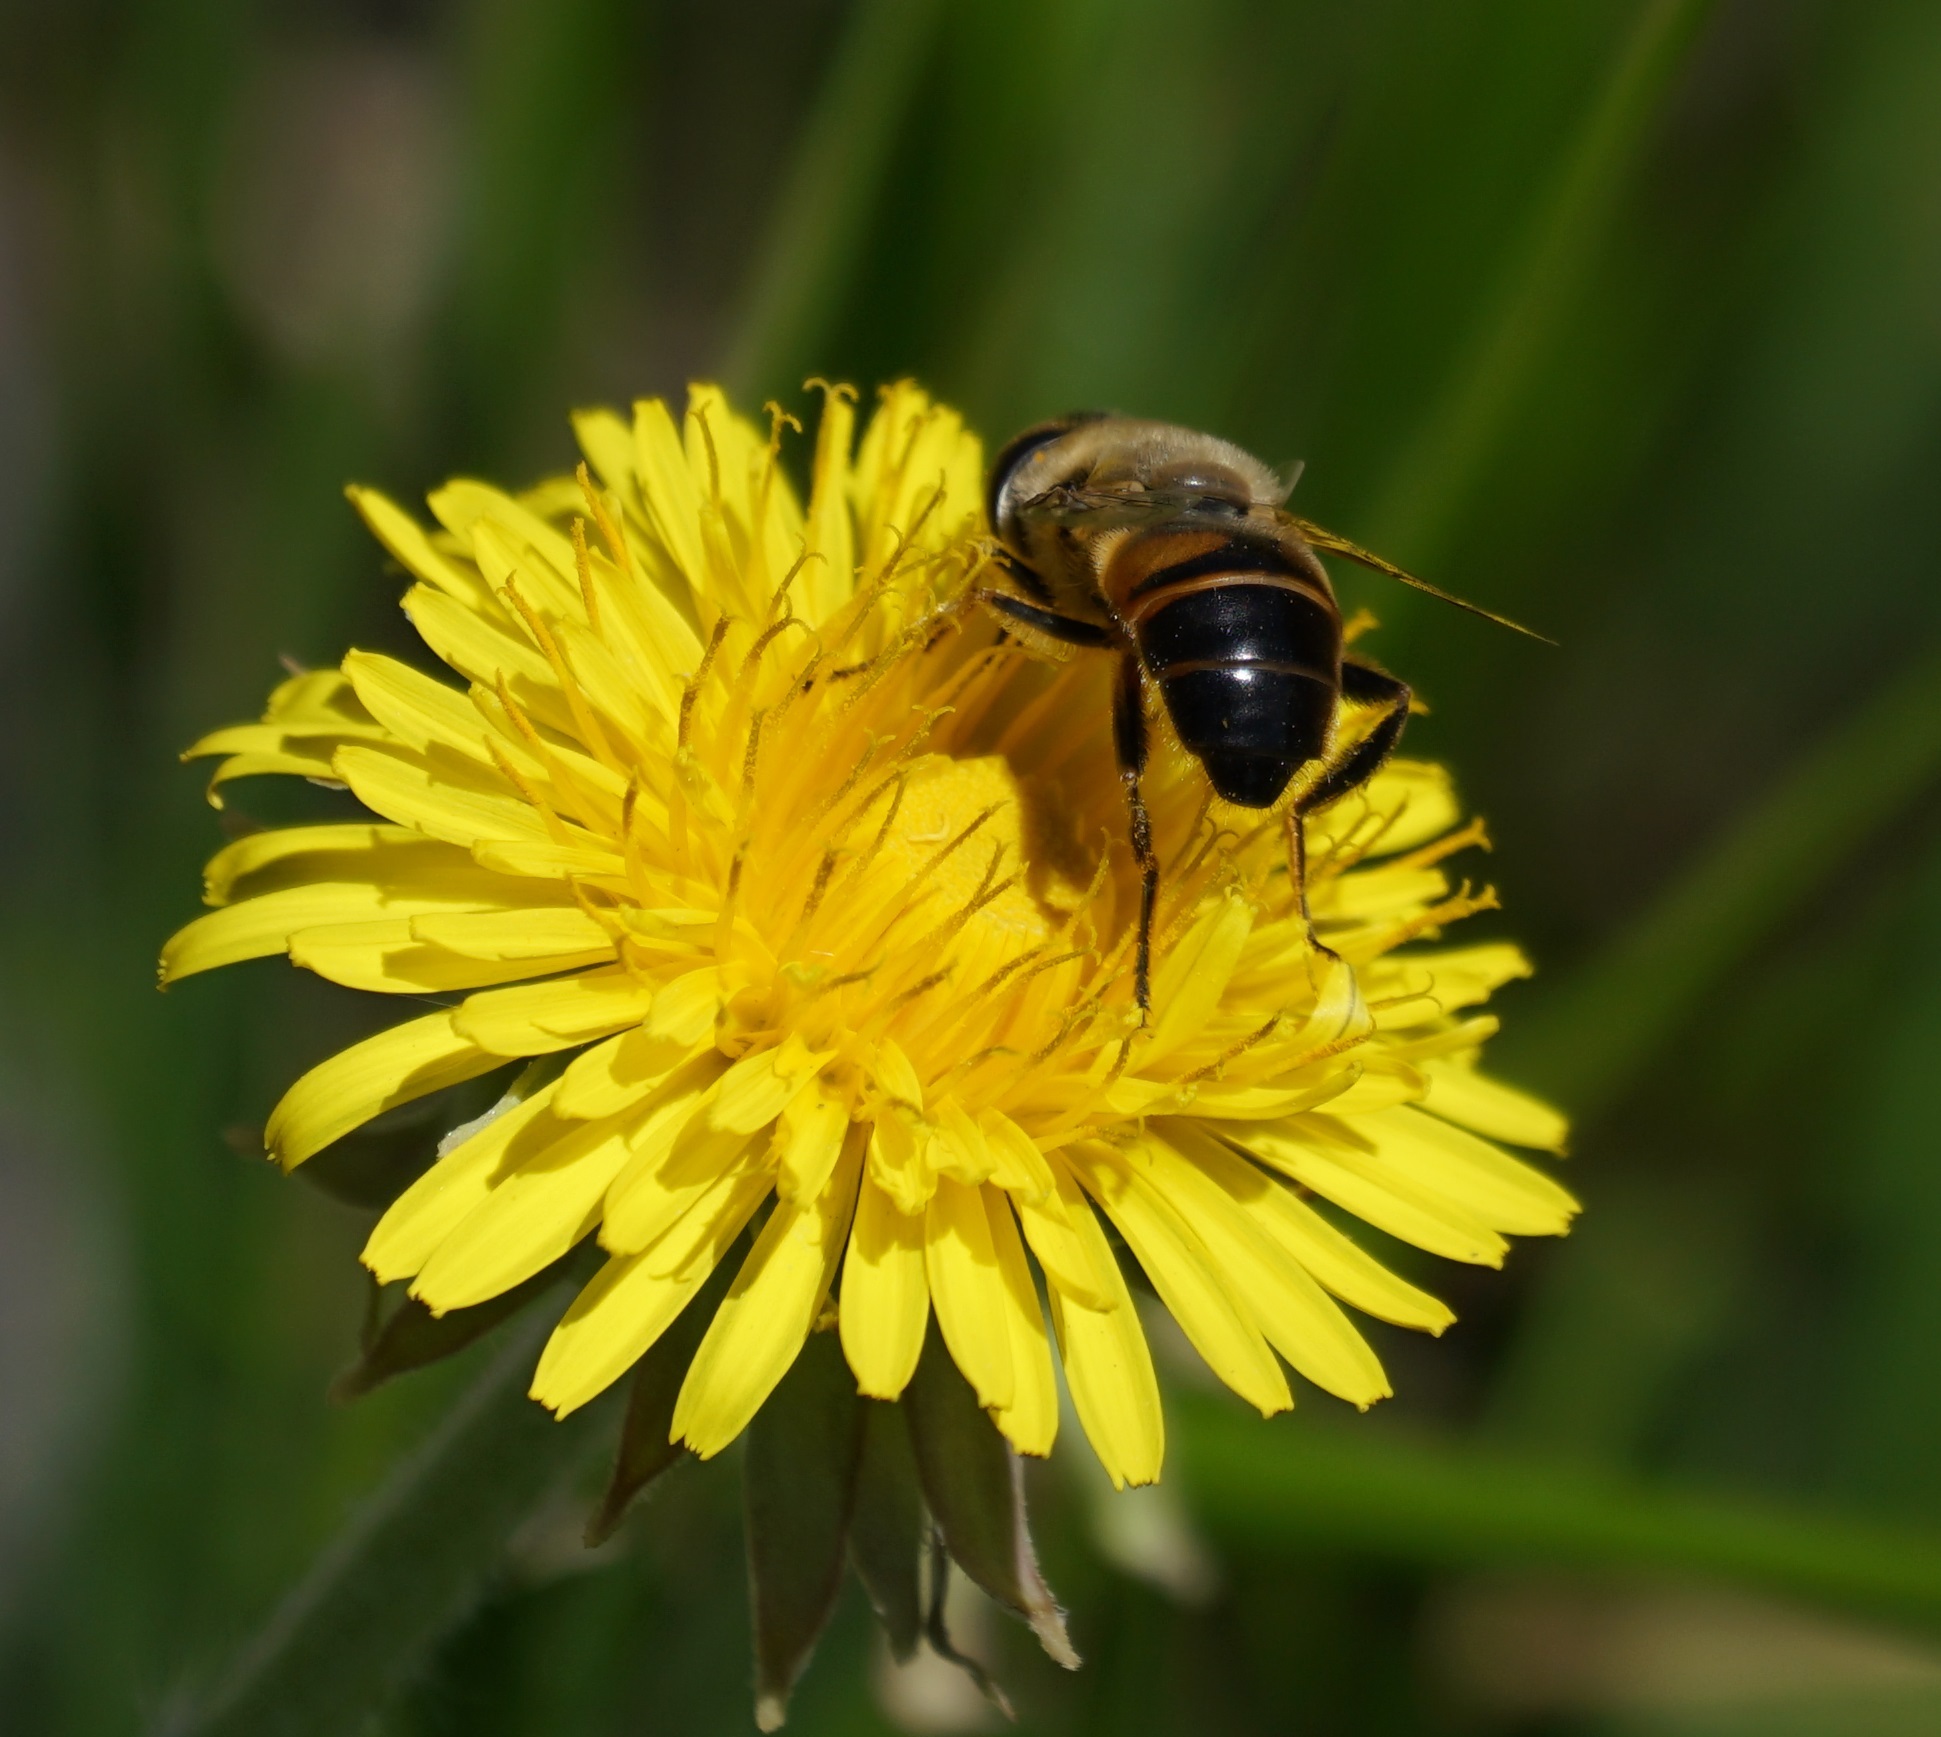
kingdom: Animalia
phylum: Arthropoda
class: Insecta
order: Diptera
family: Syrphidae
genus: Eristalis
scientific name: Eristalis tenax
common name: Drone fly
